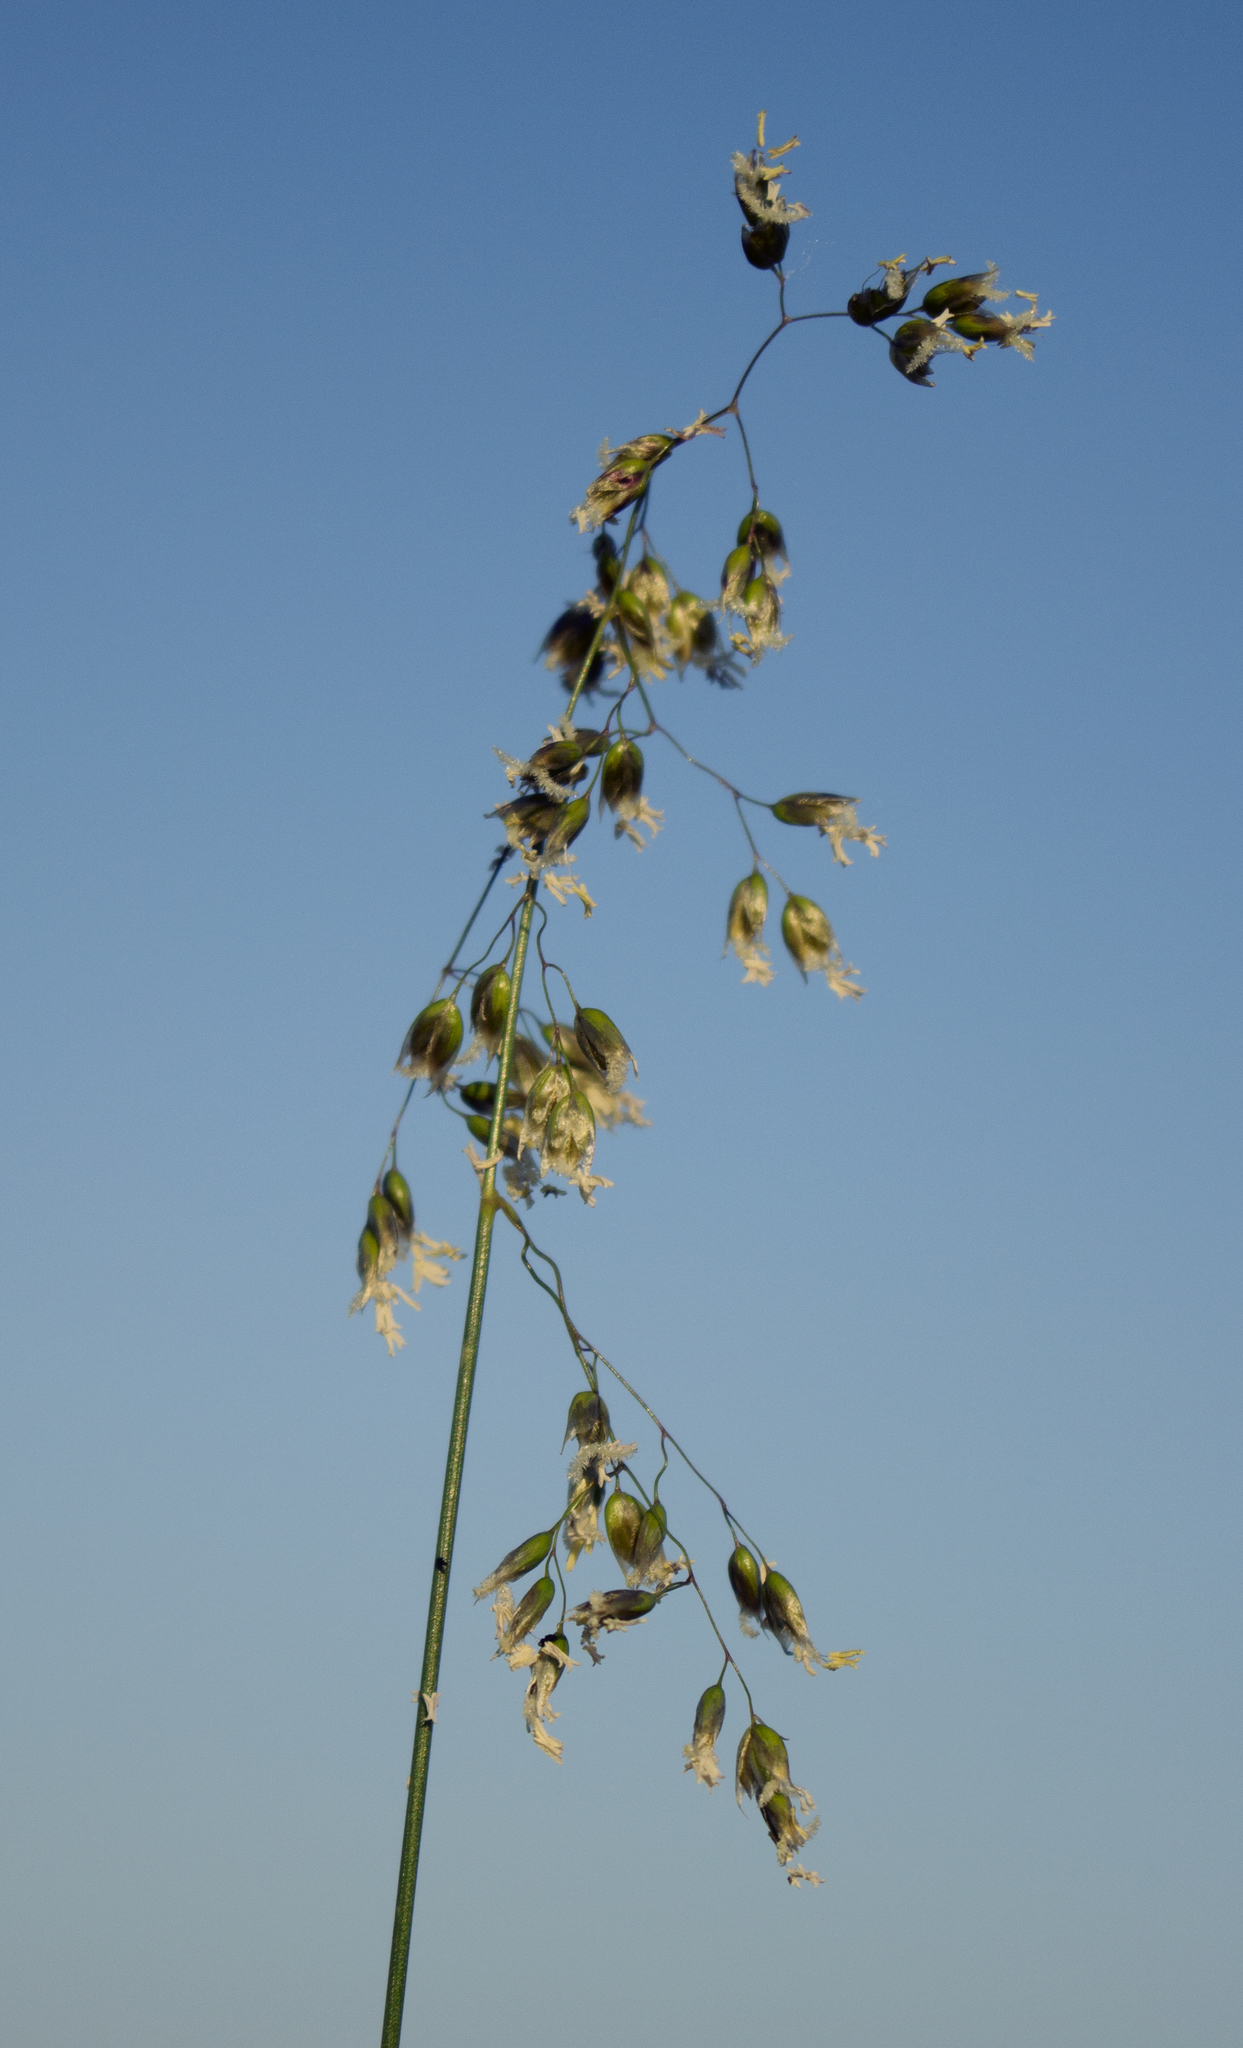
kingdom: Plantae
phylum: Tracheophyta
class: Liliopsida
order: Poales
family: Poaceae
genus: Anthoxanthum
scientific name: Anthoxanthum nitens
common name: Holy grass
